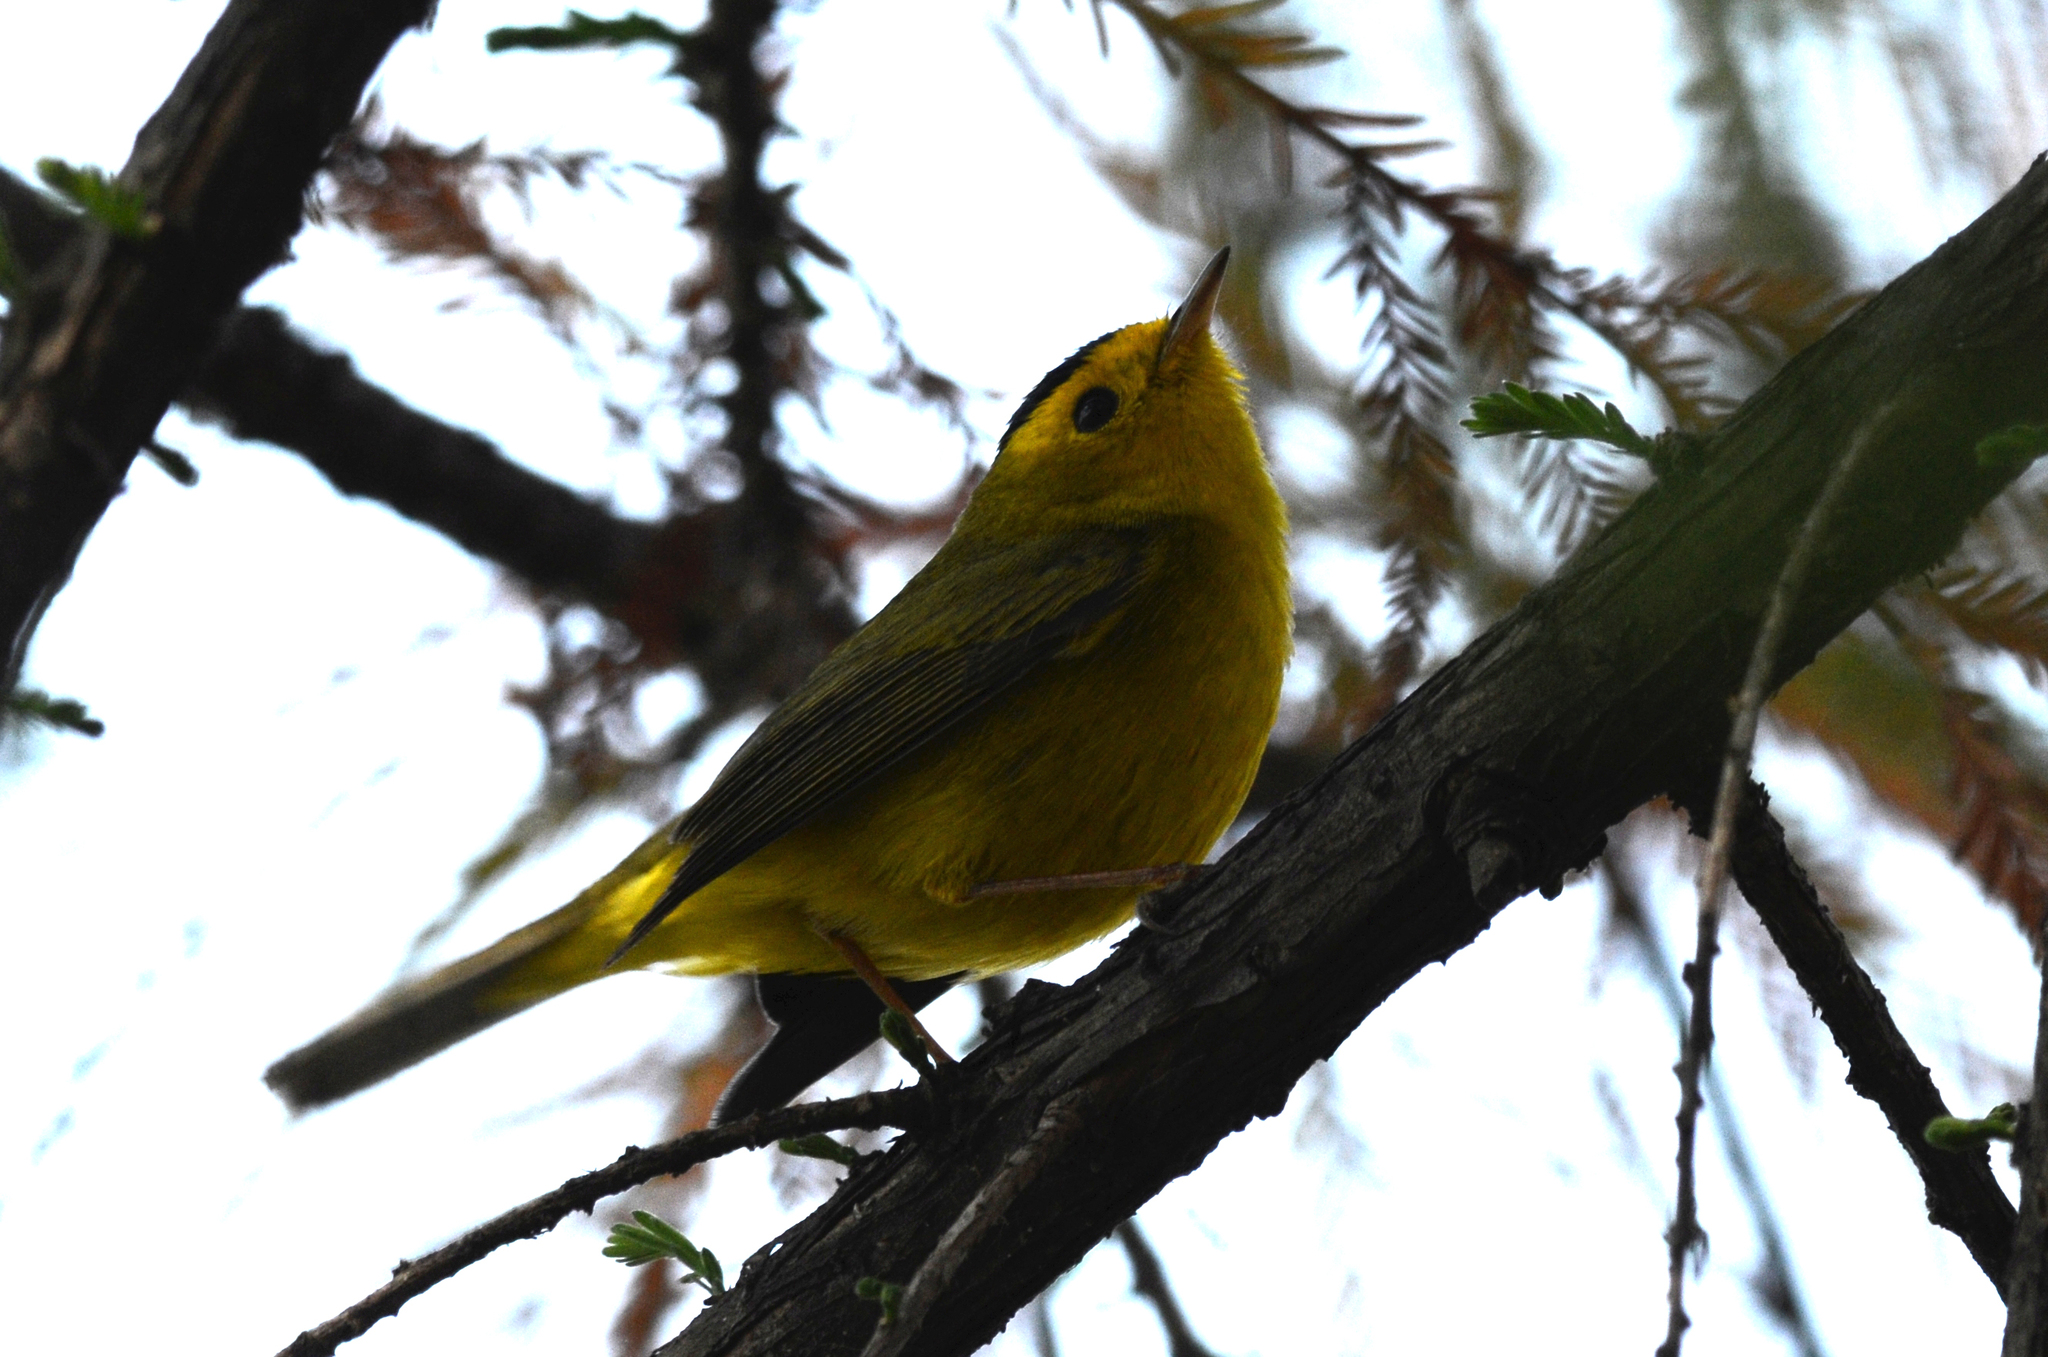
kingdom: Animalia
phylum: Chordata
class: Aves
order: Passeriformes
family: Parulidae
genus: Cardellina
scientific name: Cardellina pusilla
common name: Wilson's warbler
